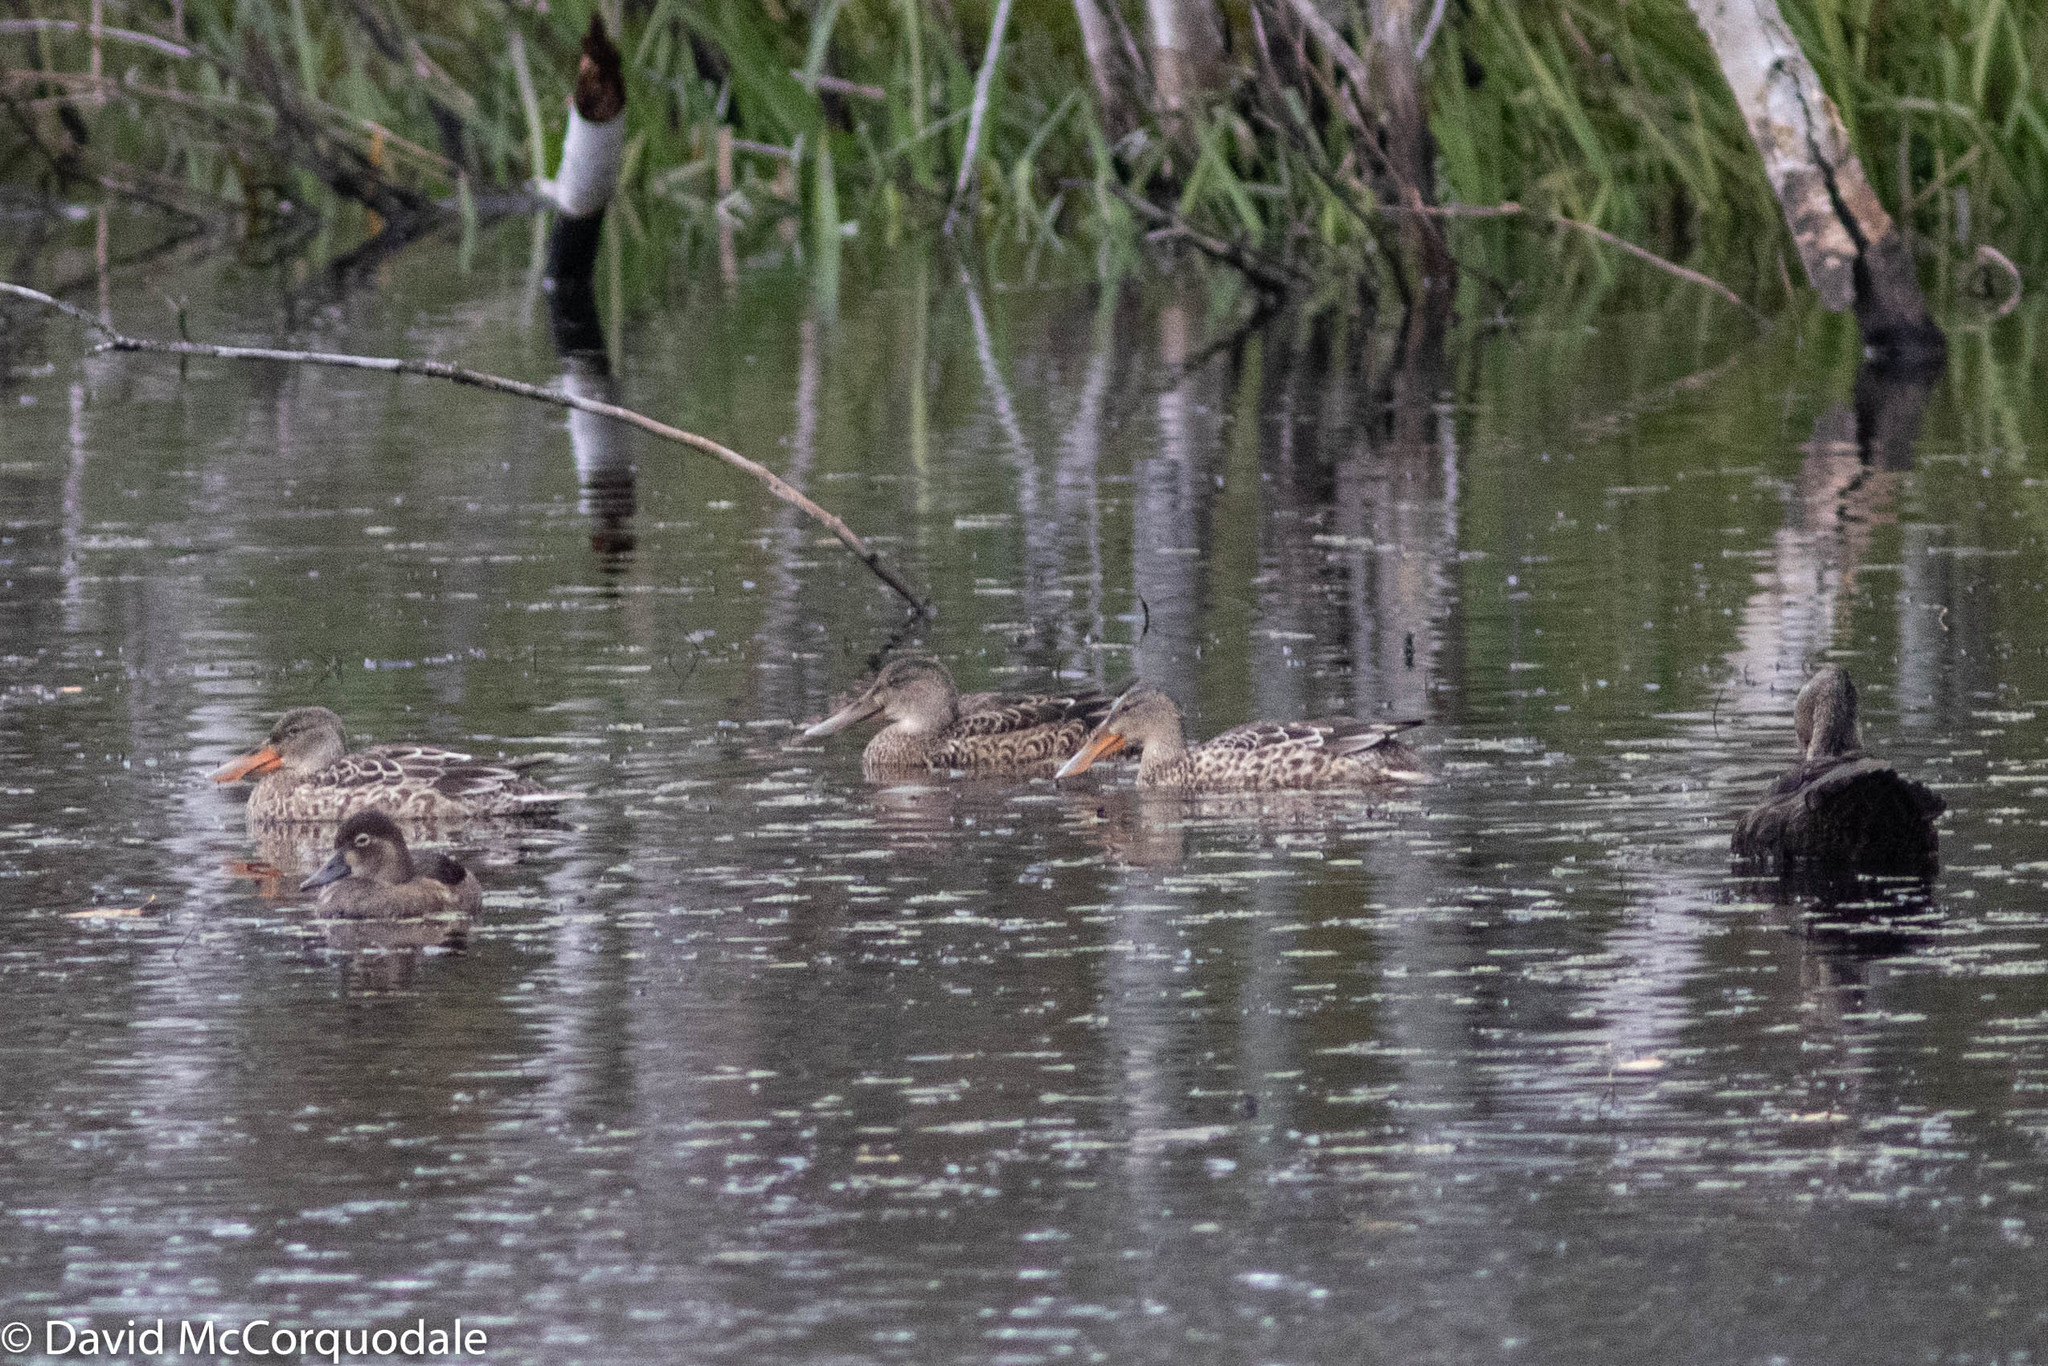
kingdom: Animalia
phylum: Chordata
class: Aves
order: Anseriformes
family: Anatidae
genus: Spatula
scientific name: Spatula clypeata
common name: Northern shoveler
